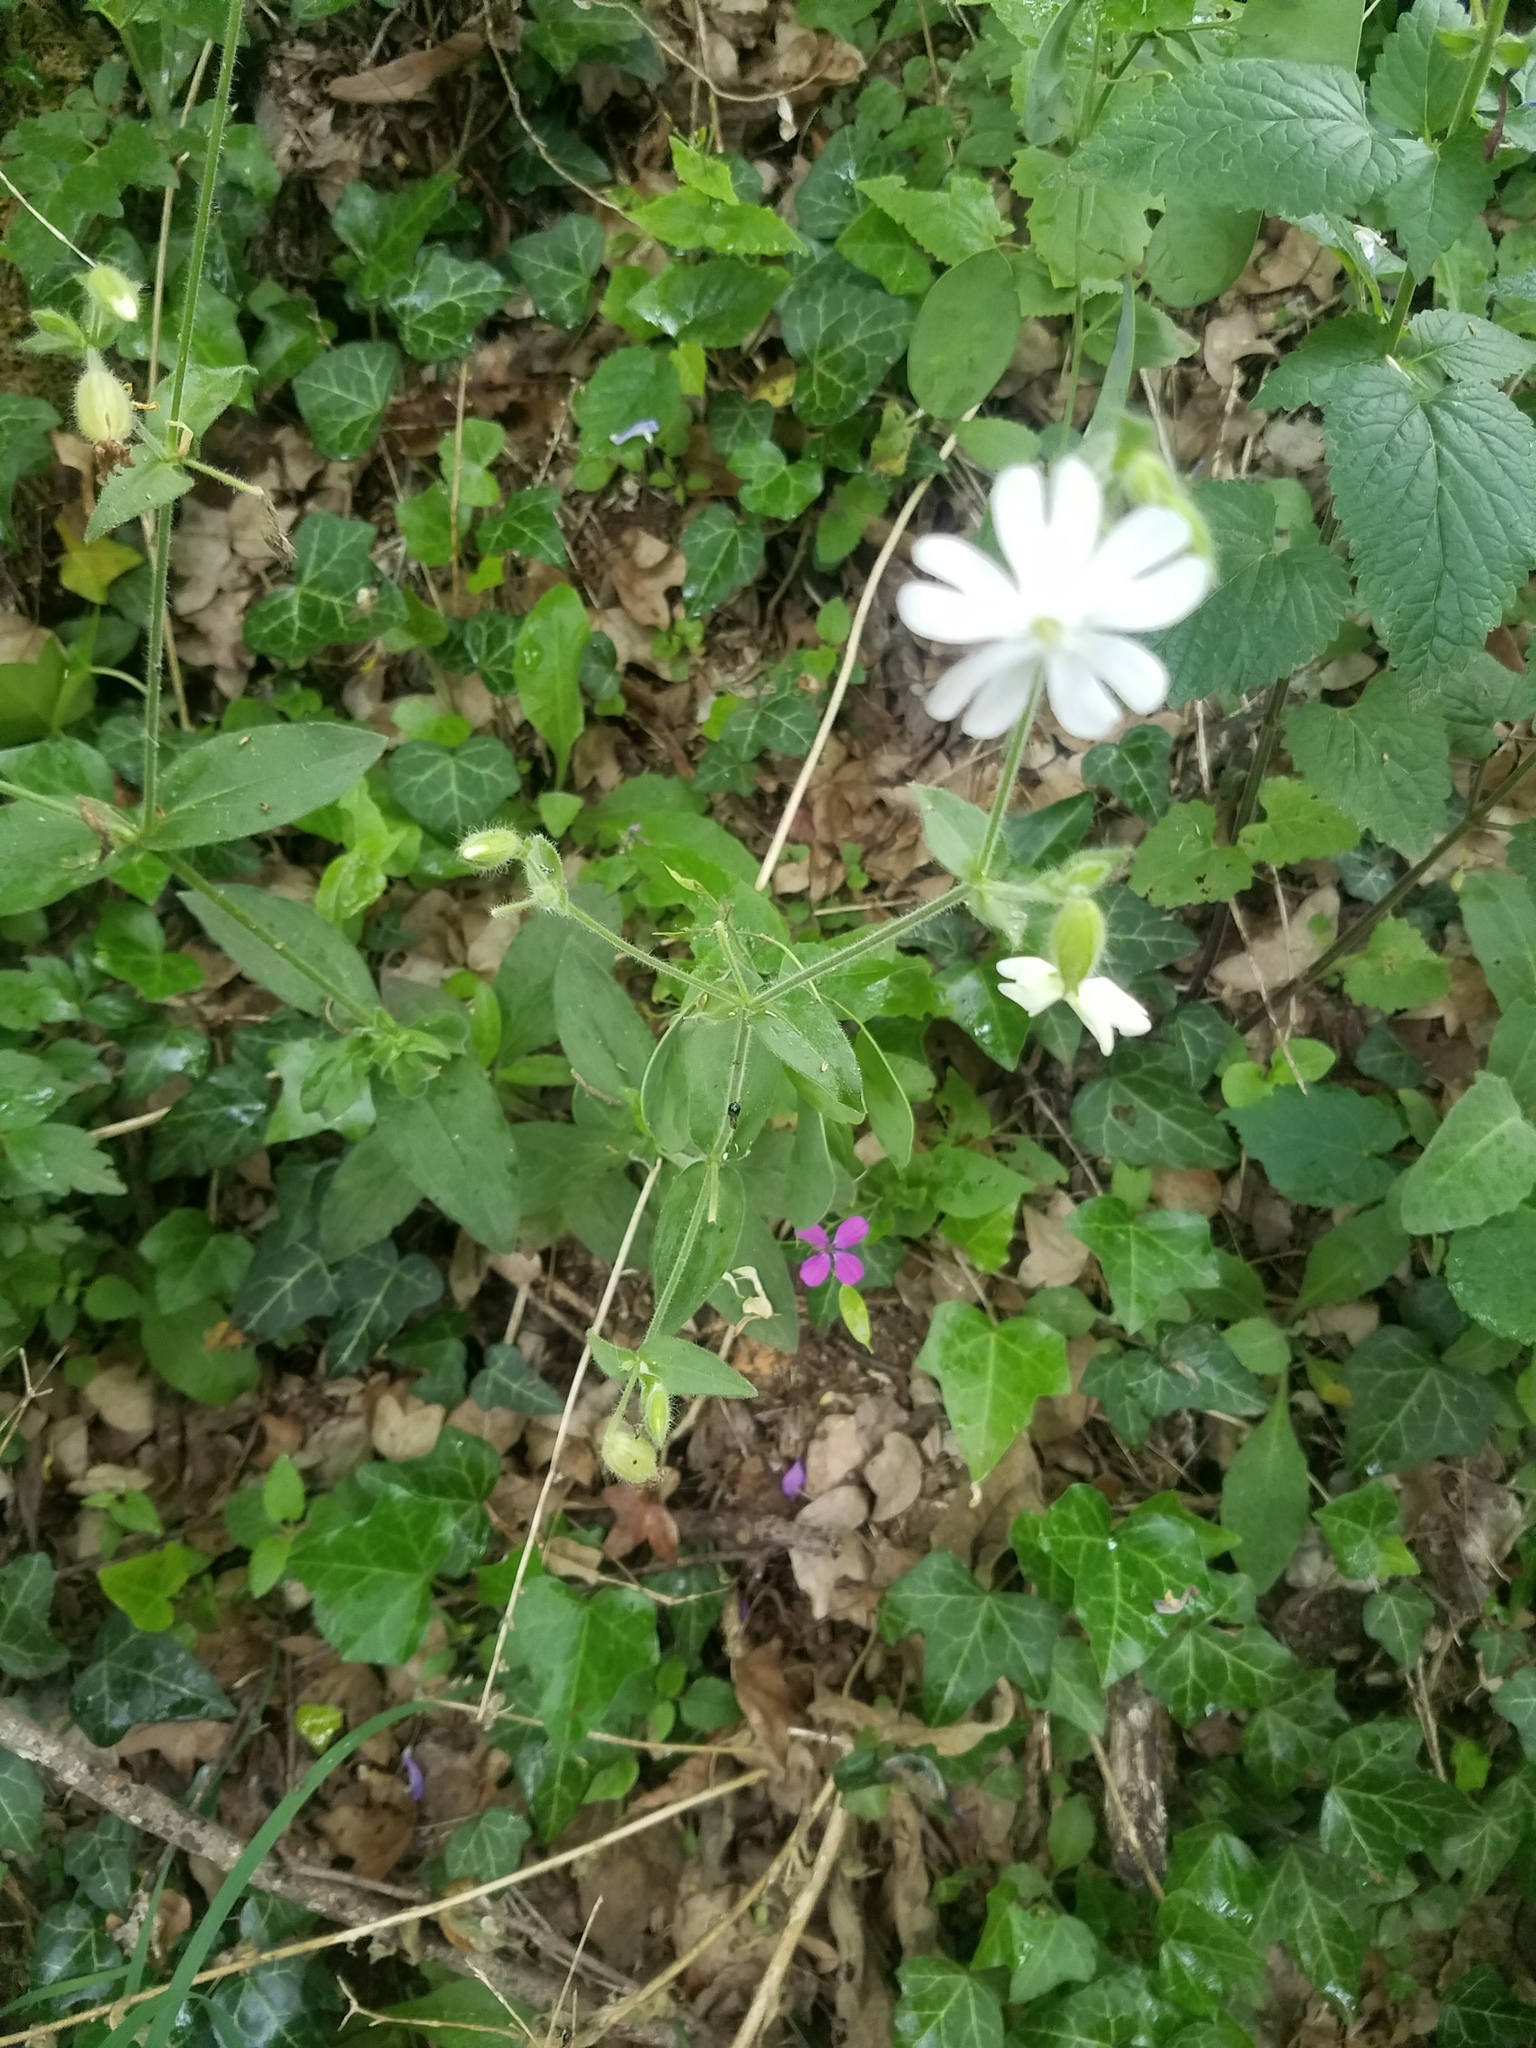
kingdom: Plantae
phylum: Tracheophyta
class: Magnoliopsida
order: Caryophyllales
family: Caryophyllaceae
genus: Silene
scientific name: Silene latifolia
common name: White campion
